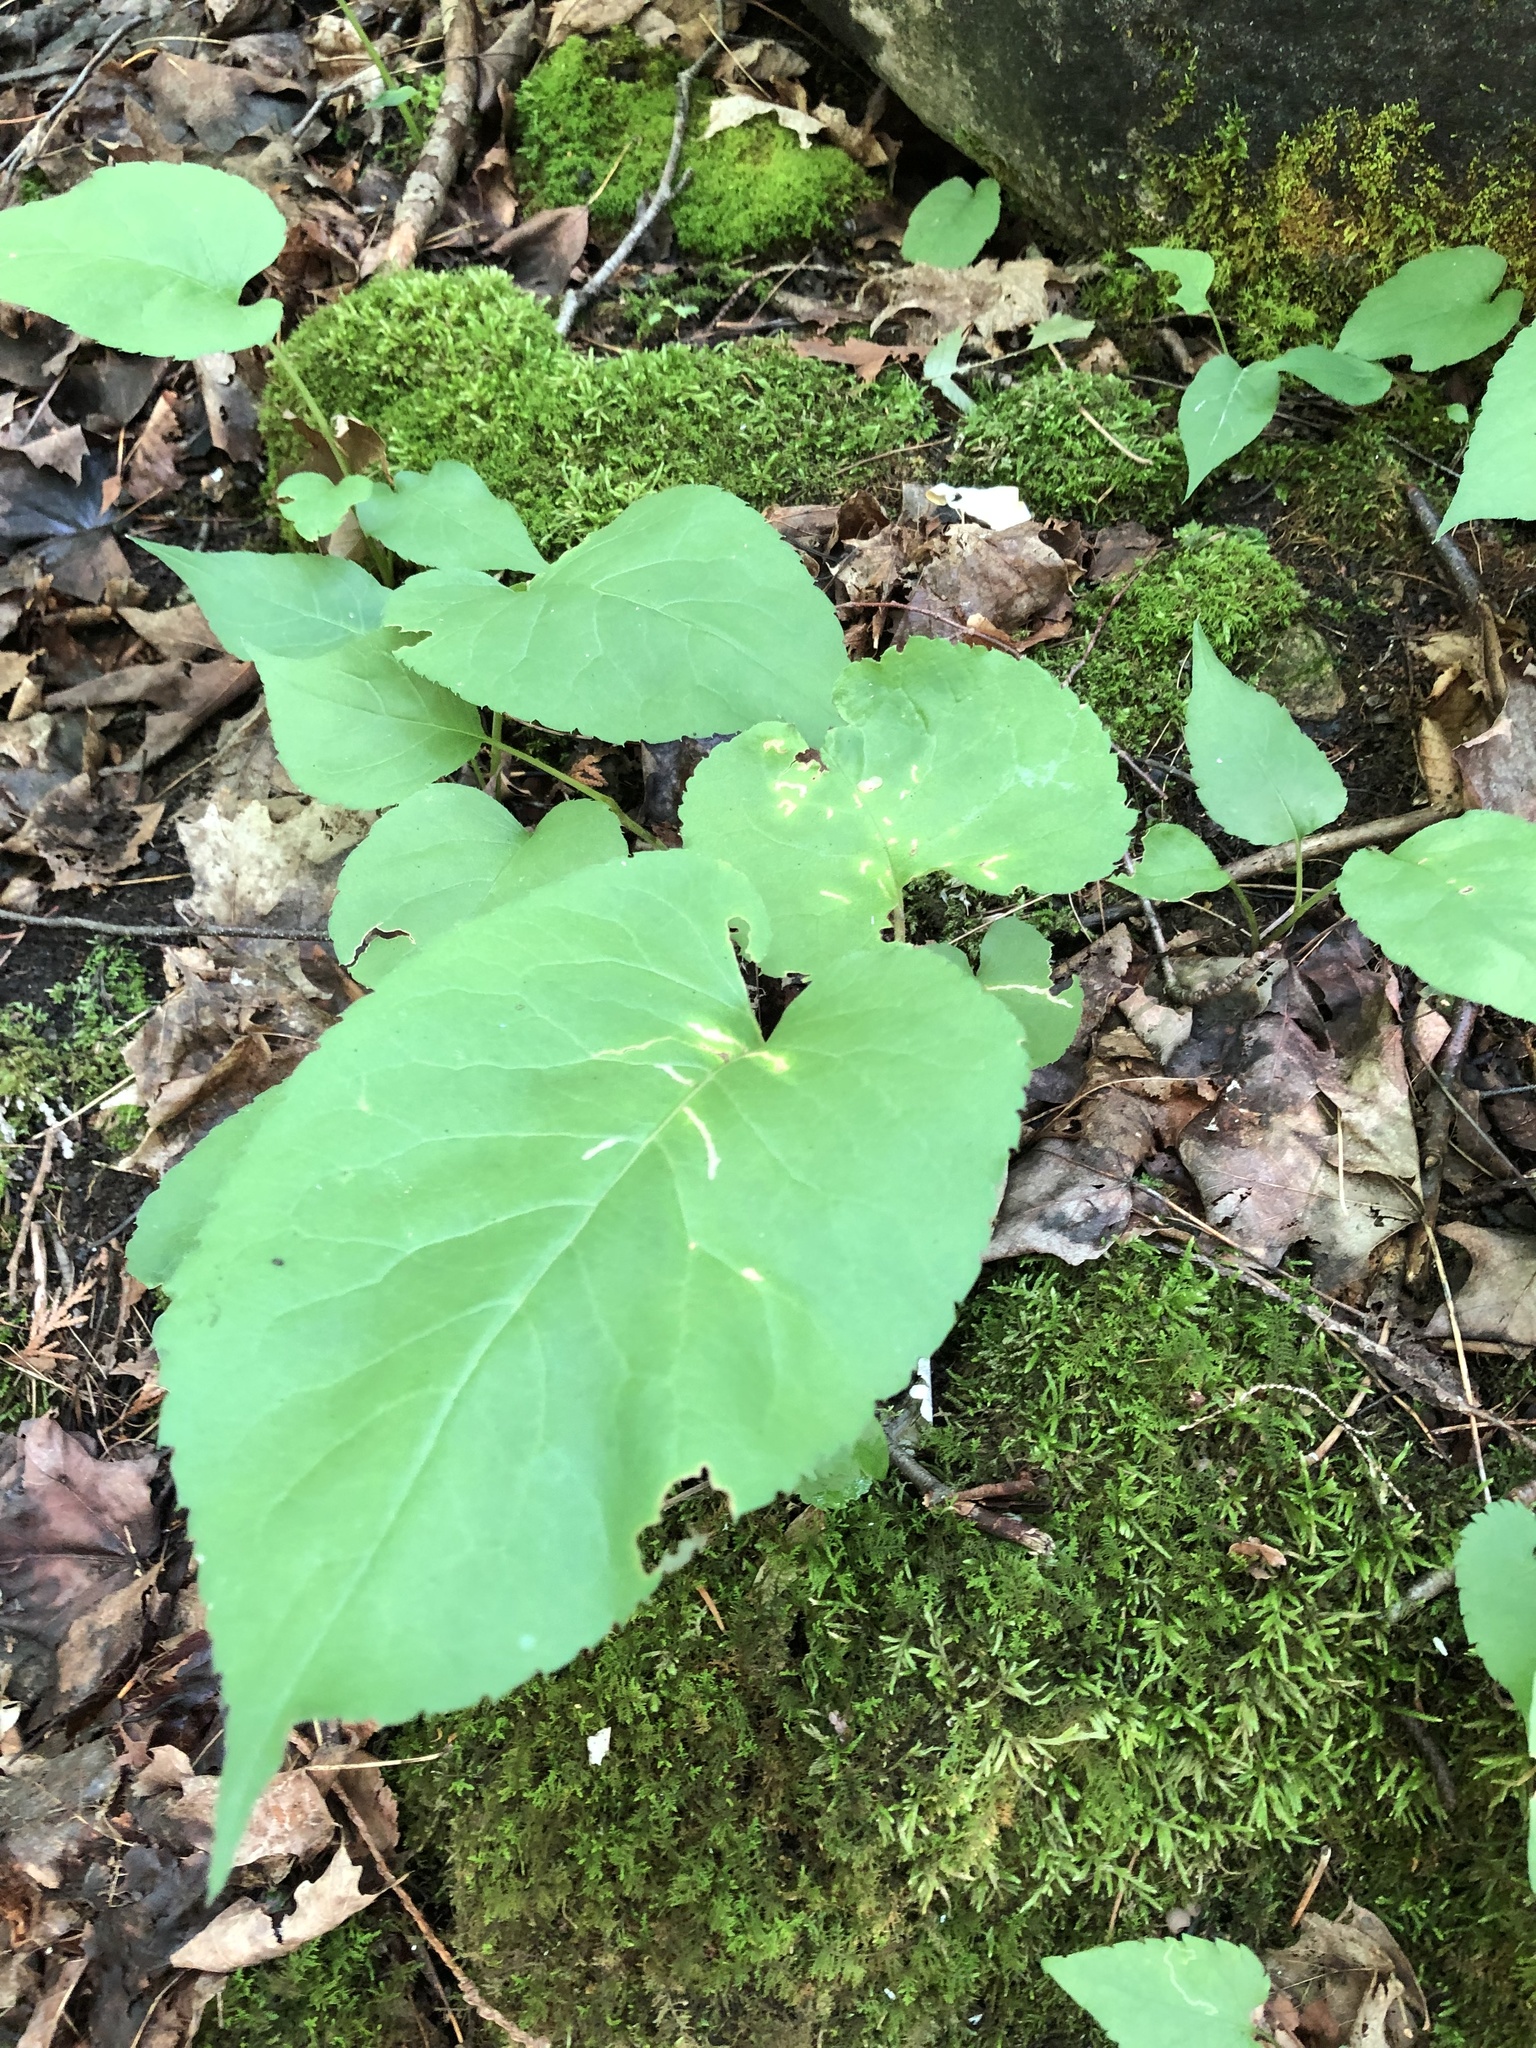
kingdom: Plantae
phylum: Tracheophyta
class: Magnoliopsida
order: Asterales
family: Asteraceae
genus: Eurybia
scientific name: Eurybia macrophylla
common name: Big-leaved aster
